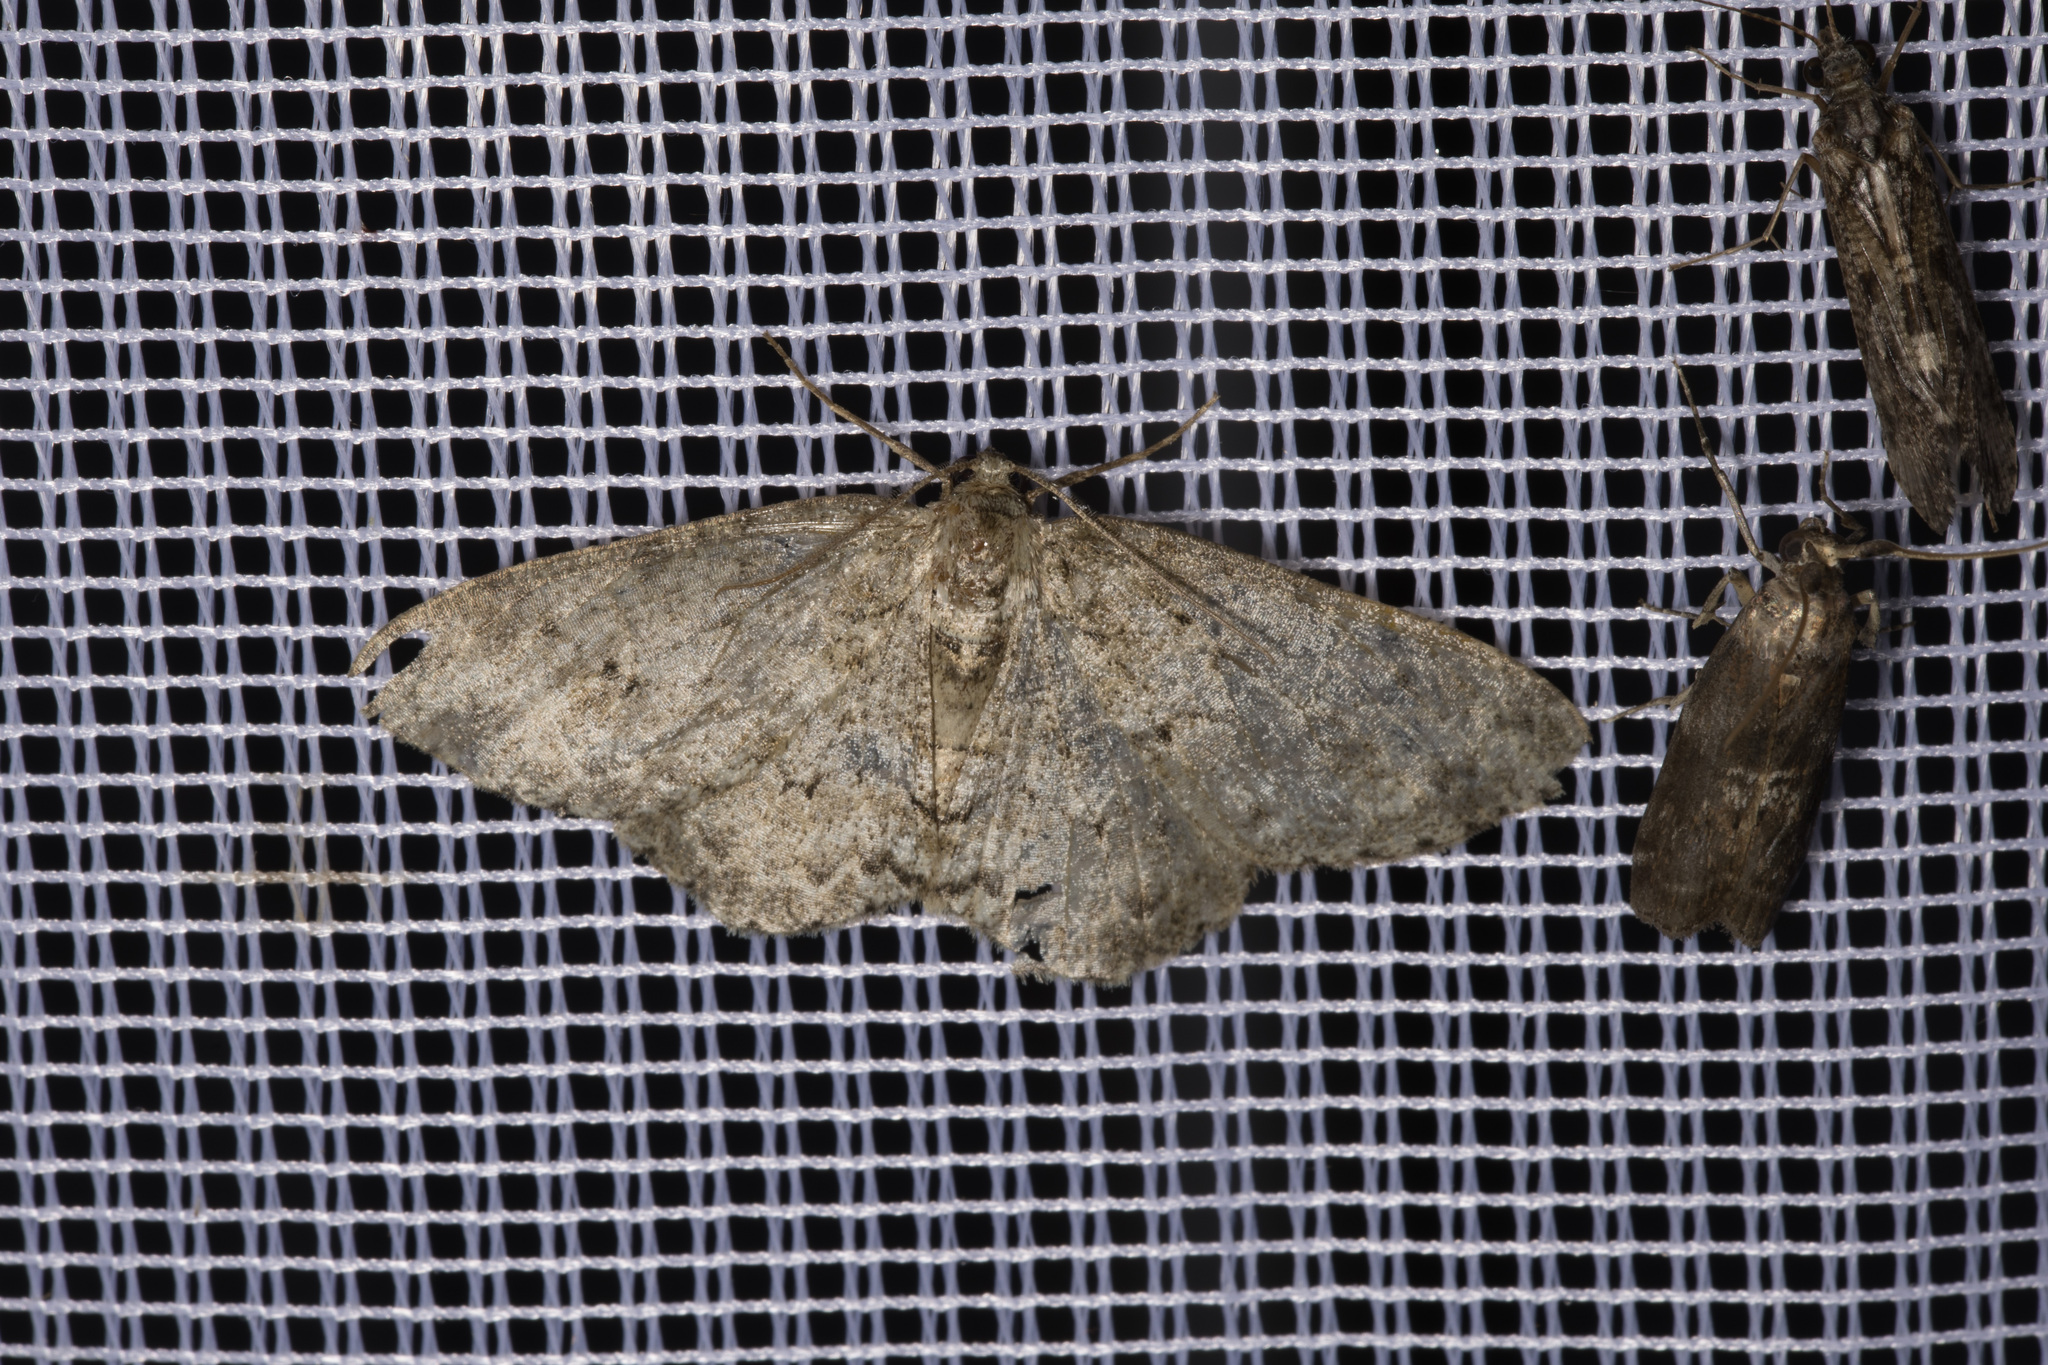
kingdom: Animalia
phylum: Arthropoda
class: Insecta
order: Lepidoptera
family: Geometridae
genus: Ectropis
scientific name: Ectropis crepuscularia
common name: Engrailed
